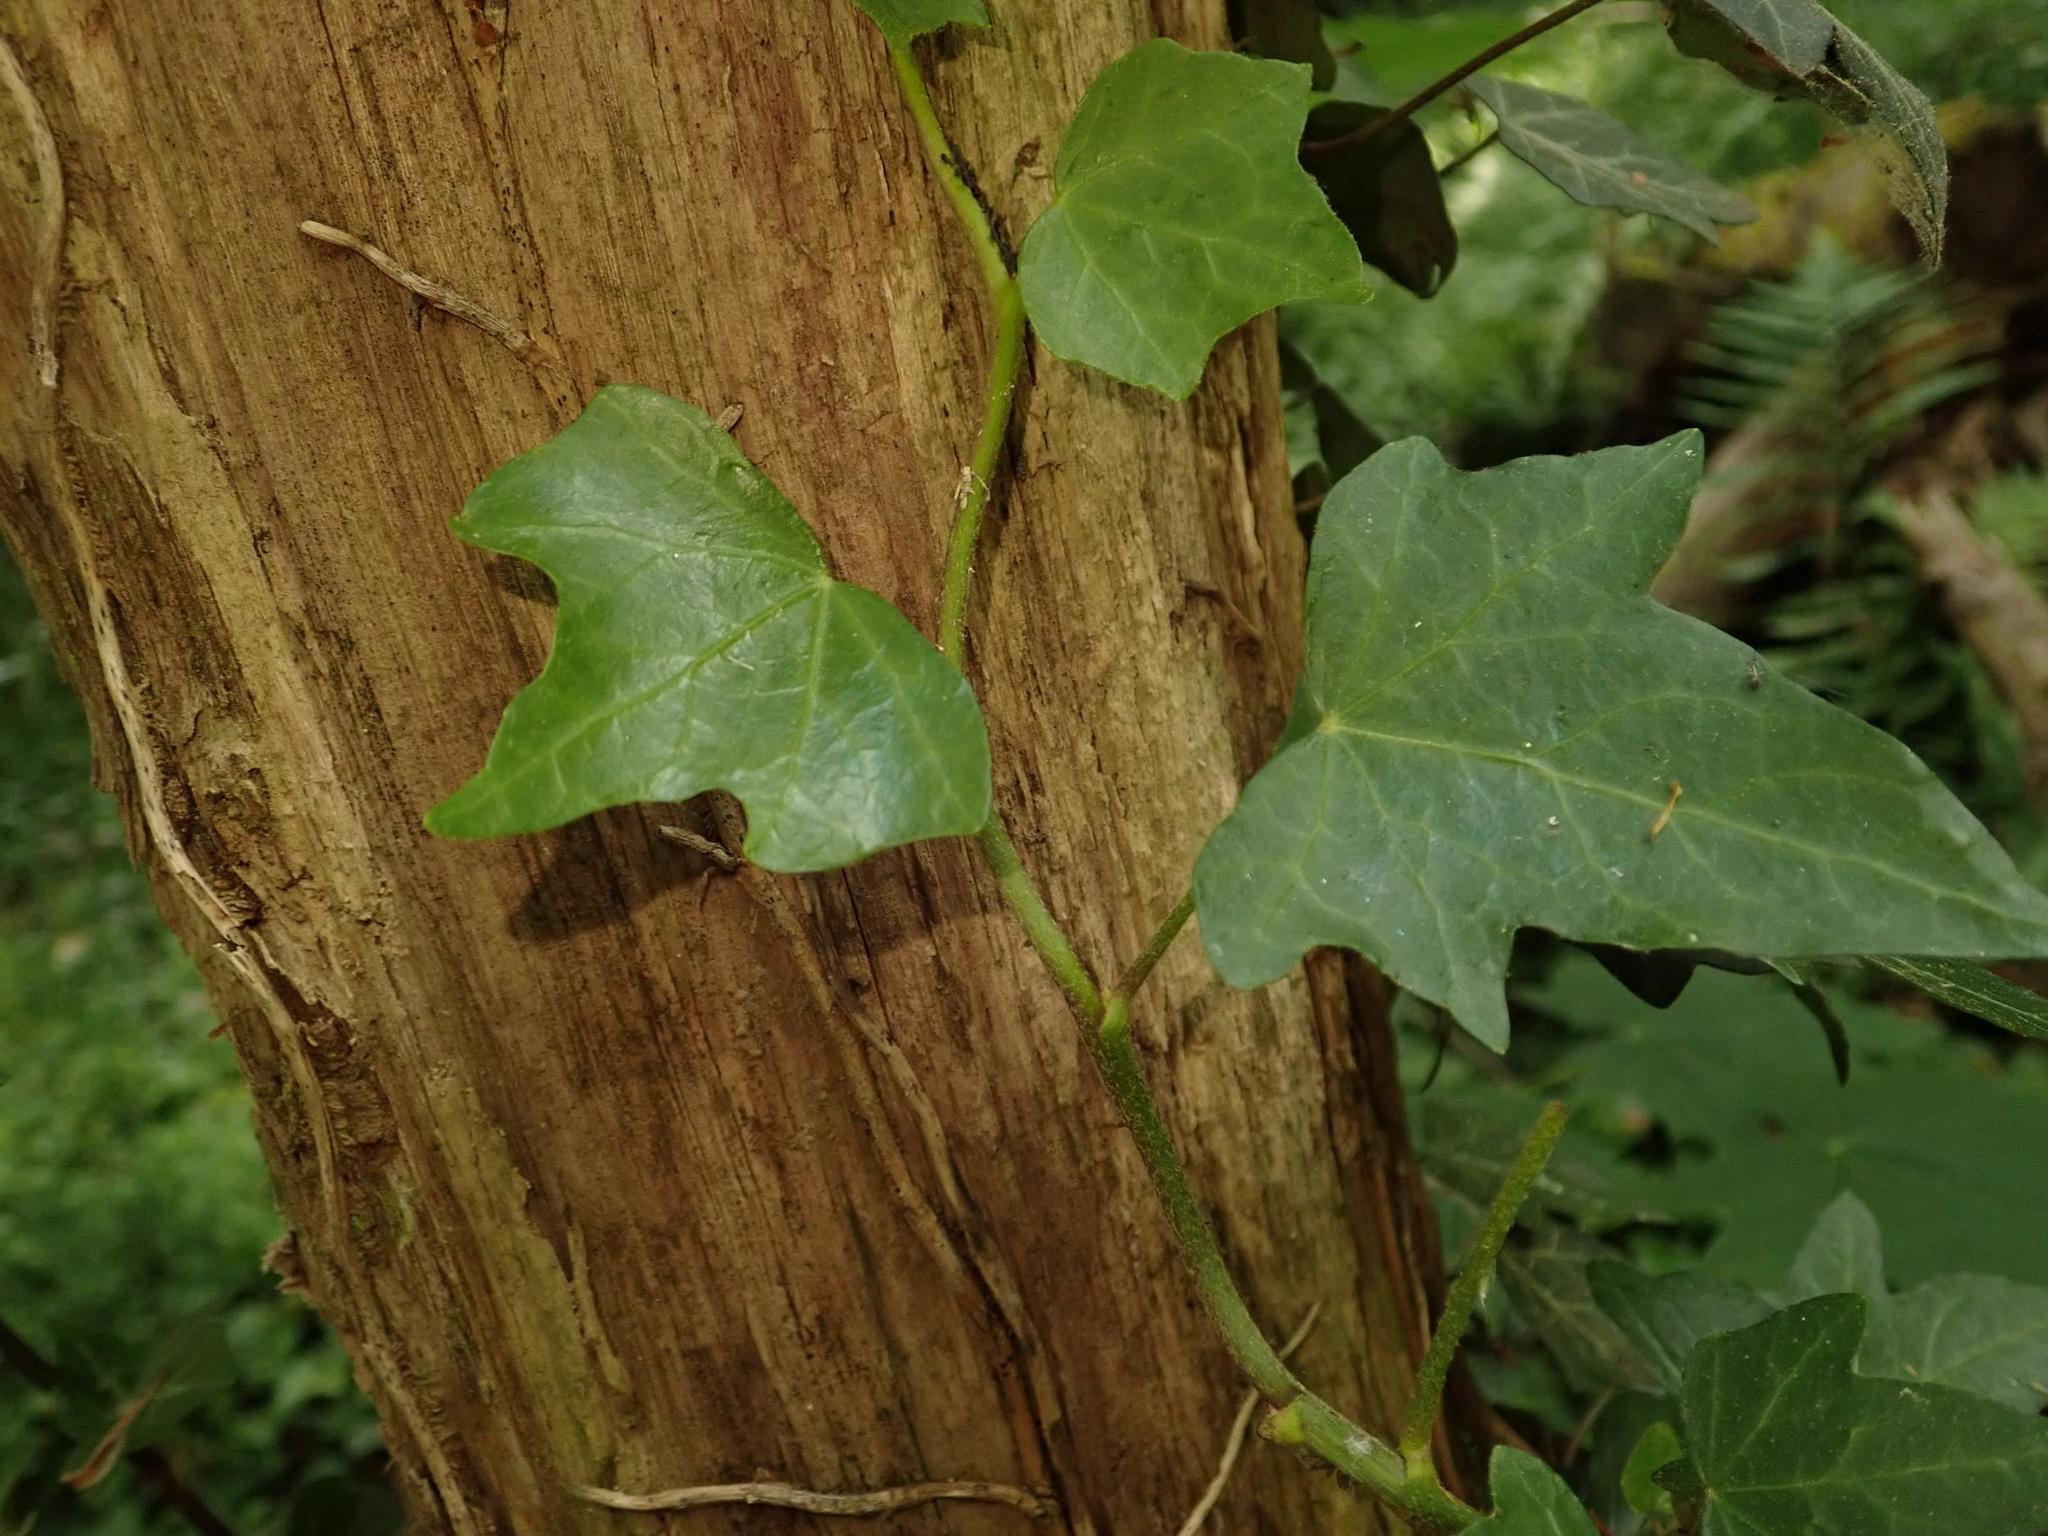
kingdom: Plantae
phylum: Tracheophyta
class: Magnoliopsida
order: Apiales
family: Araliaceae
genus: Hedera
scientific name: Hedera helix
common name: Ivy
